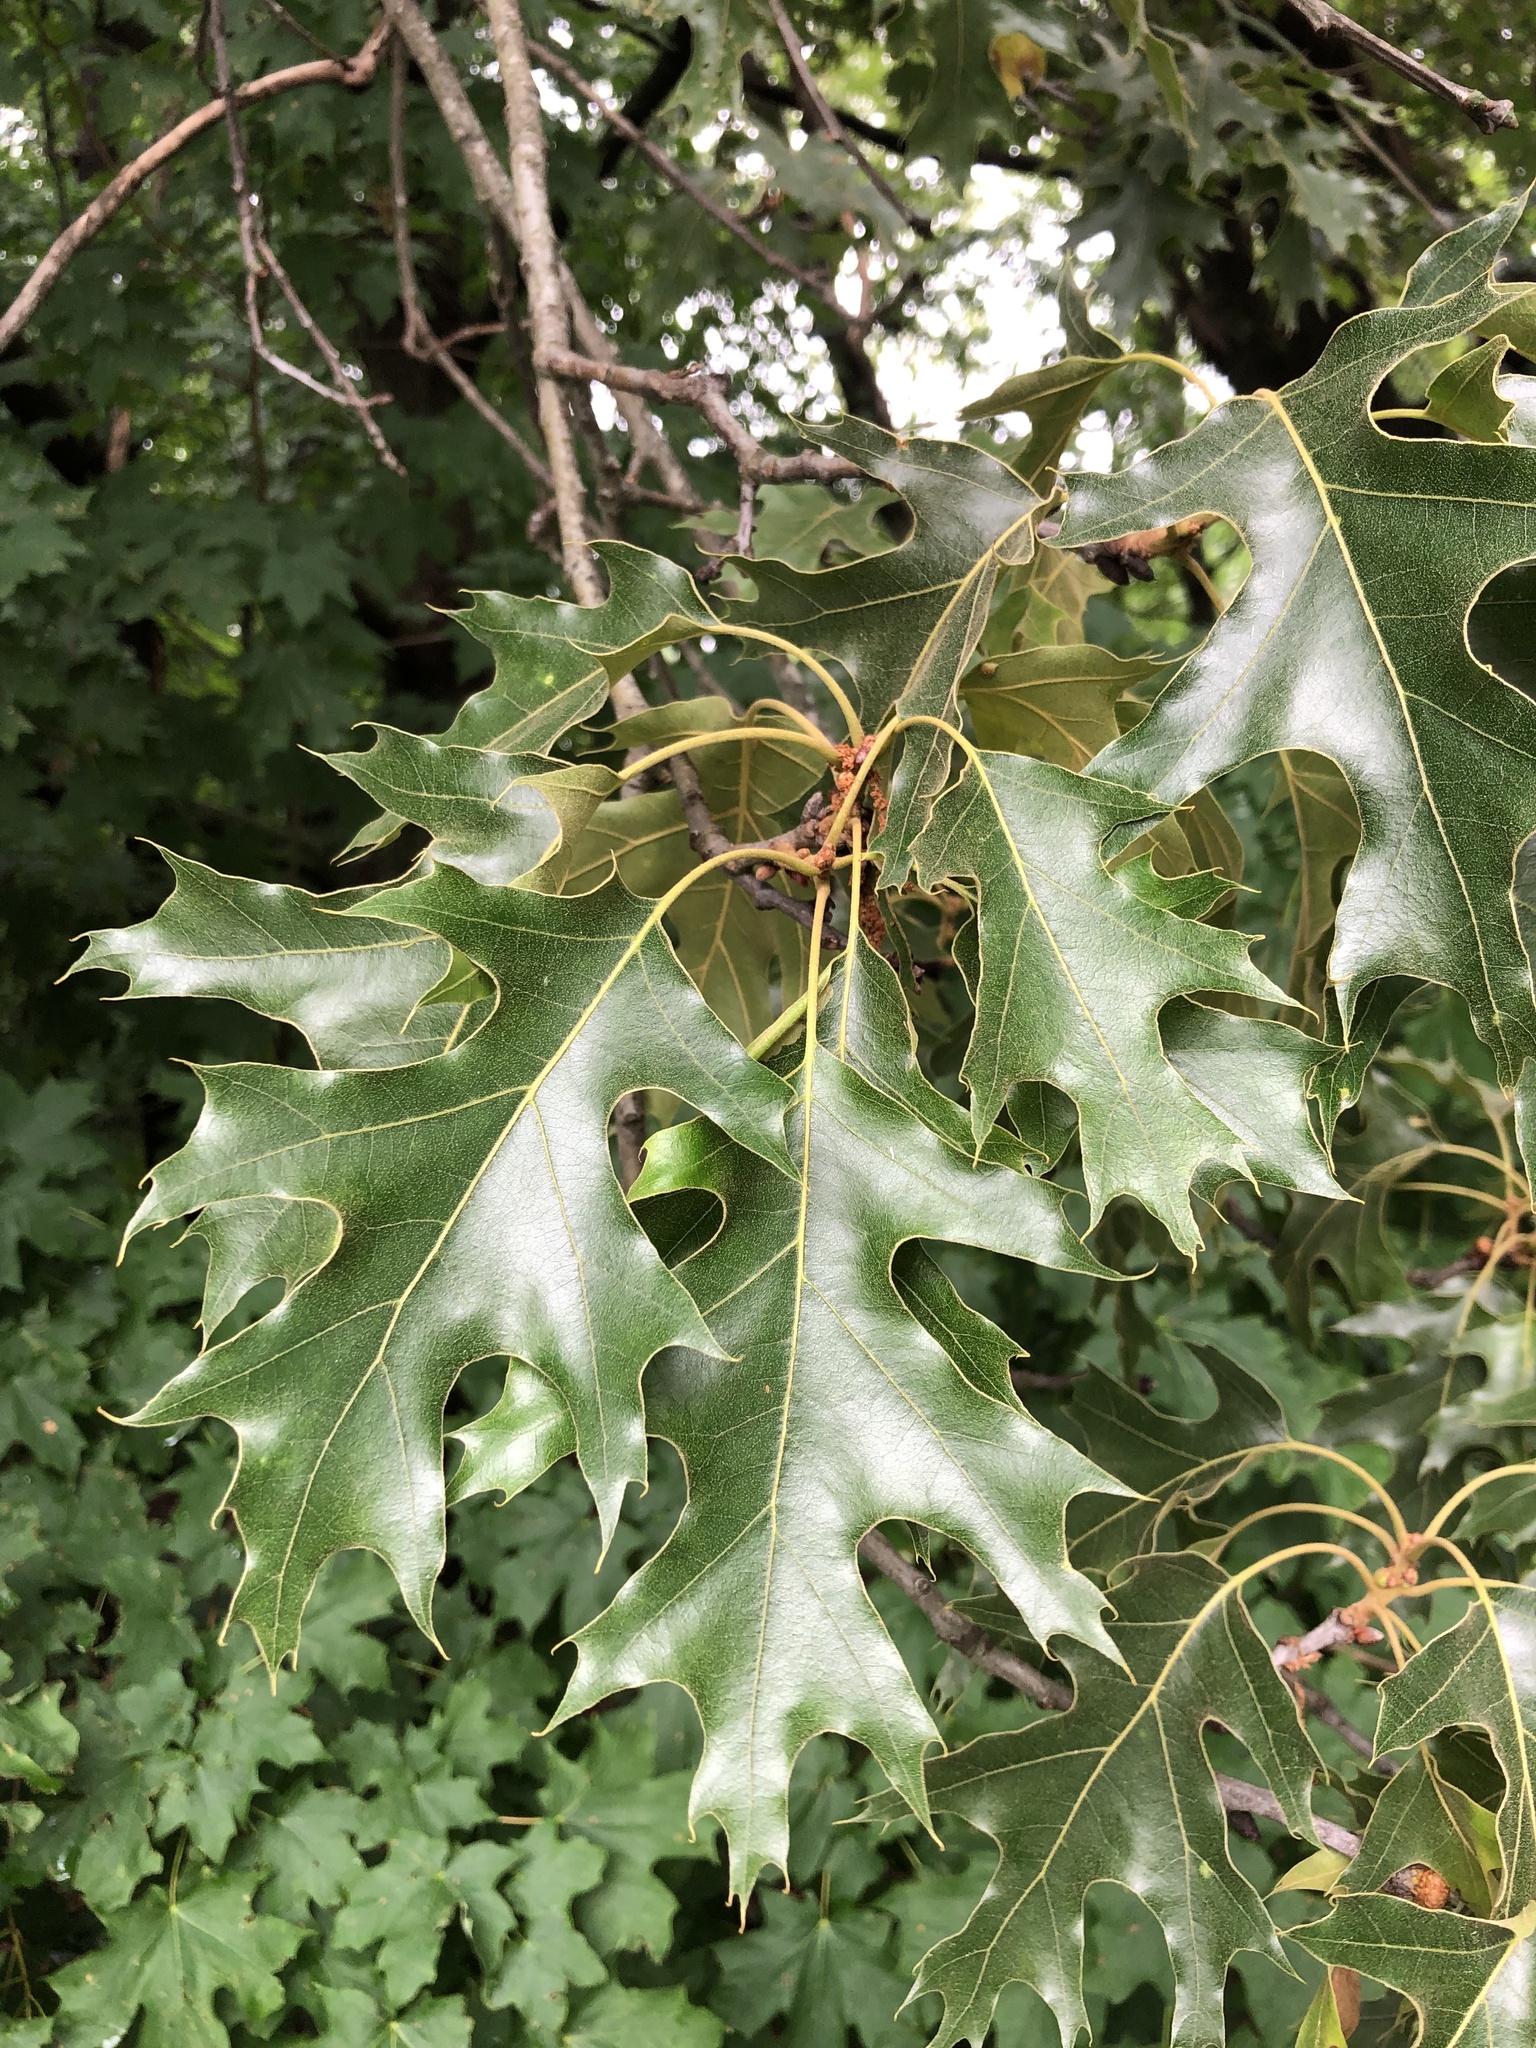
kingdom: Plantae
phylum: Tracheophyta
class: Magnoliopsida
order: Fagales
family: Fagaceae
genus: Quercus
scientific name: Quercus velutina
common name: Black oak
